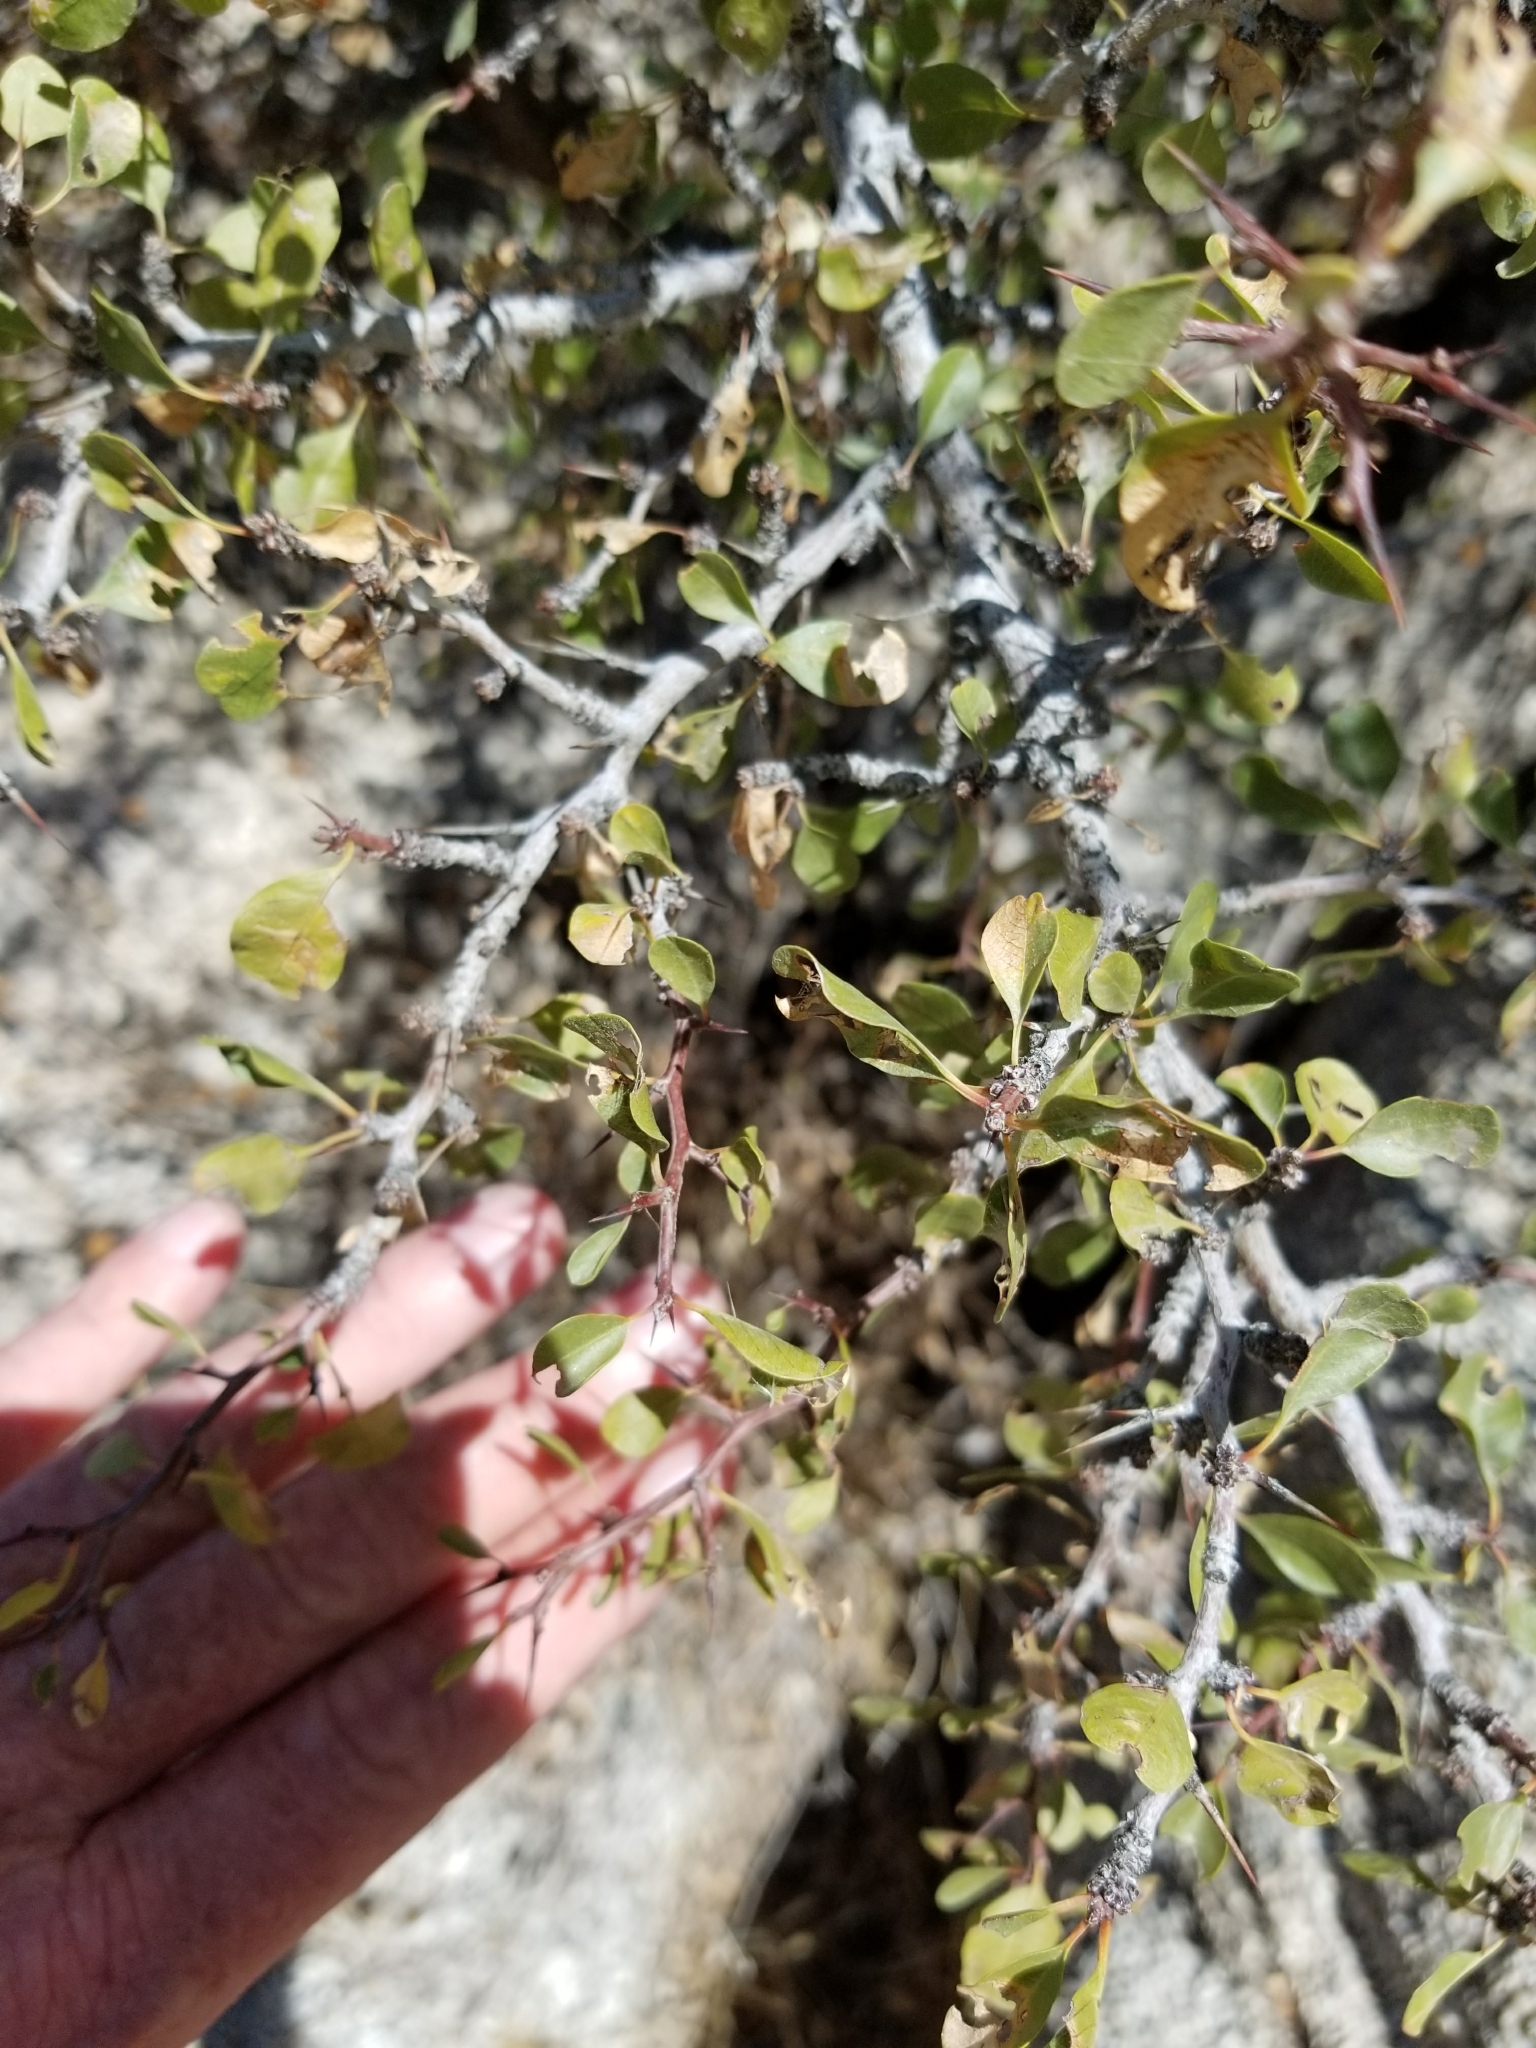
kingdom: Plantae
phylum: Tracheophyta
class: Magnoliopsida
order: Rosales
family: Rhamnaceae
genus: Pseudoziziphus
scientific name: Pseudoziziphus parryi
